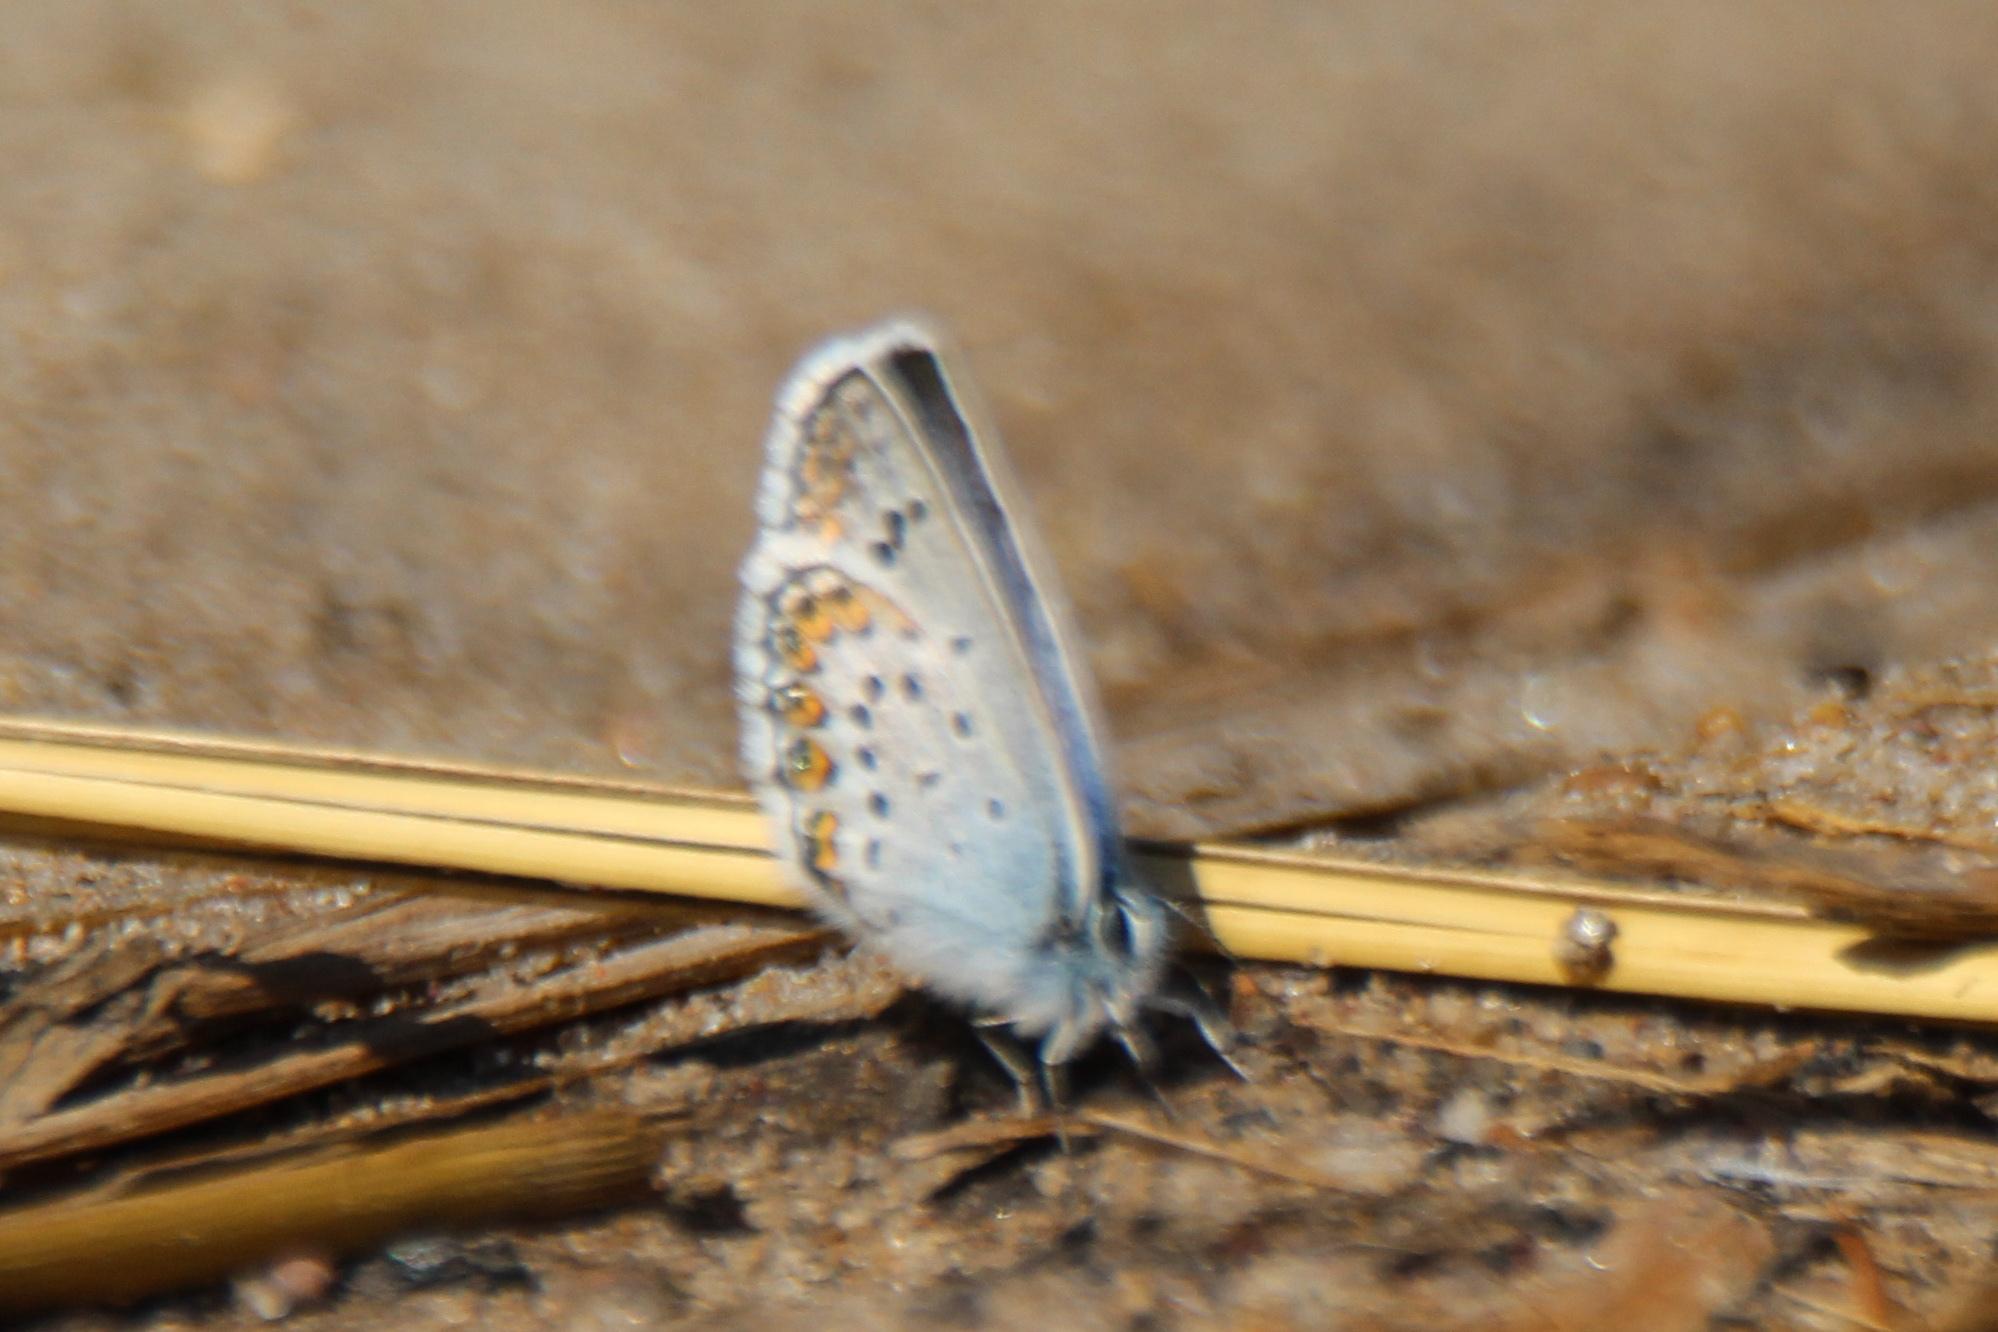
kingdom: Animalia
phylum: Arthropoda
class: Insecta
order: Lepidoptera
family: Lycaenidae
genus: Plebejus
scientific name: Plebejus argus
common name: Silver-studded blue
